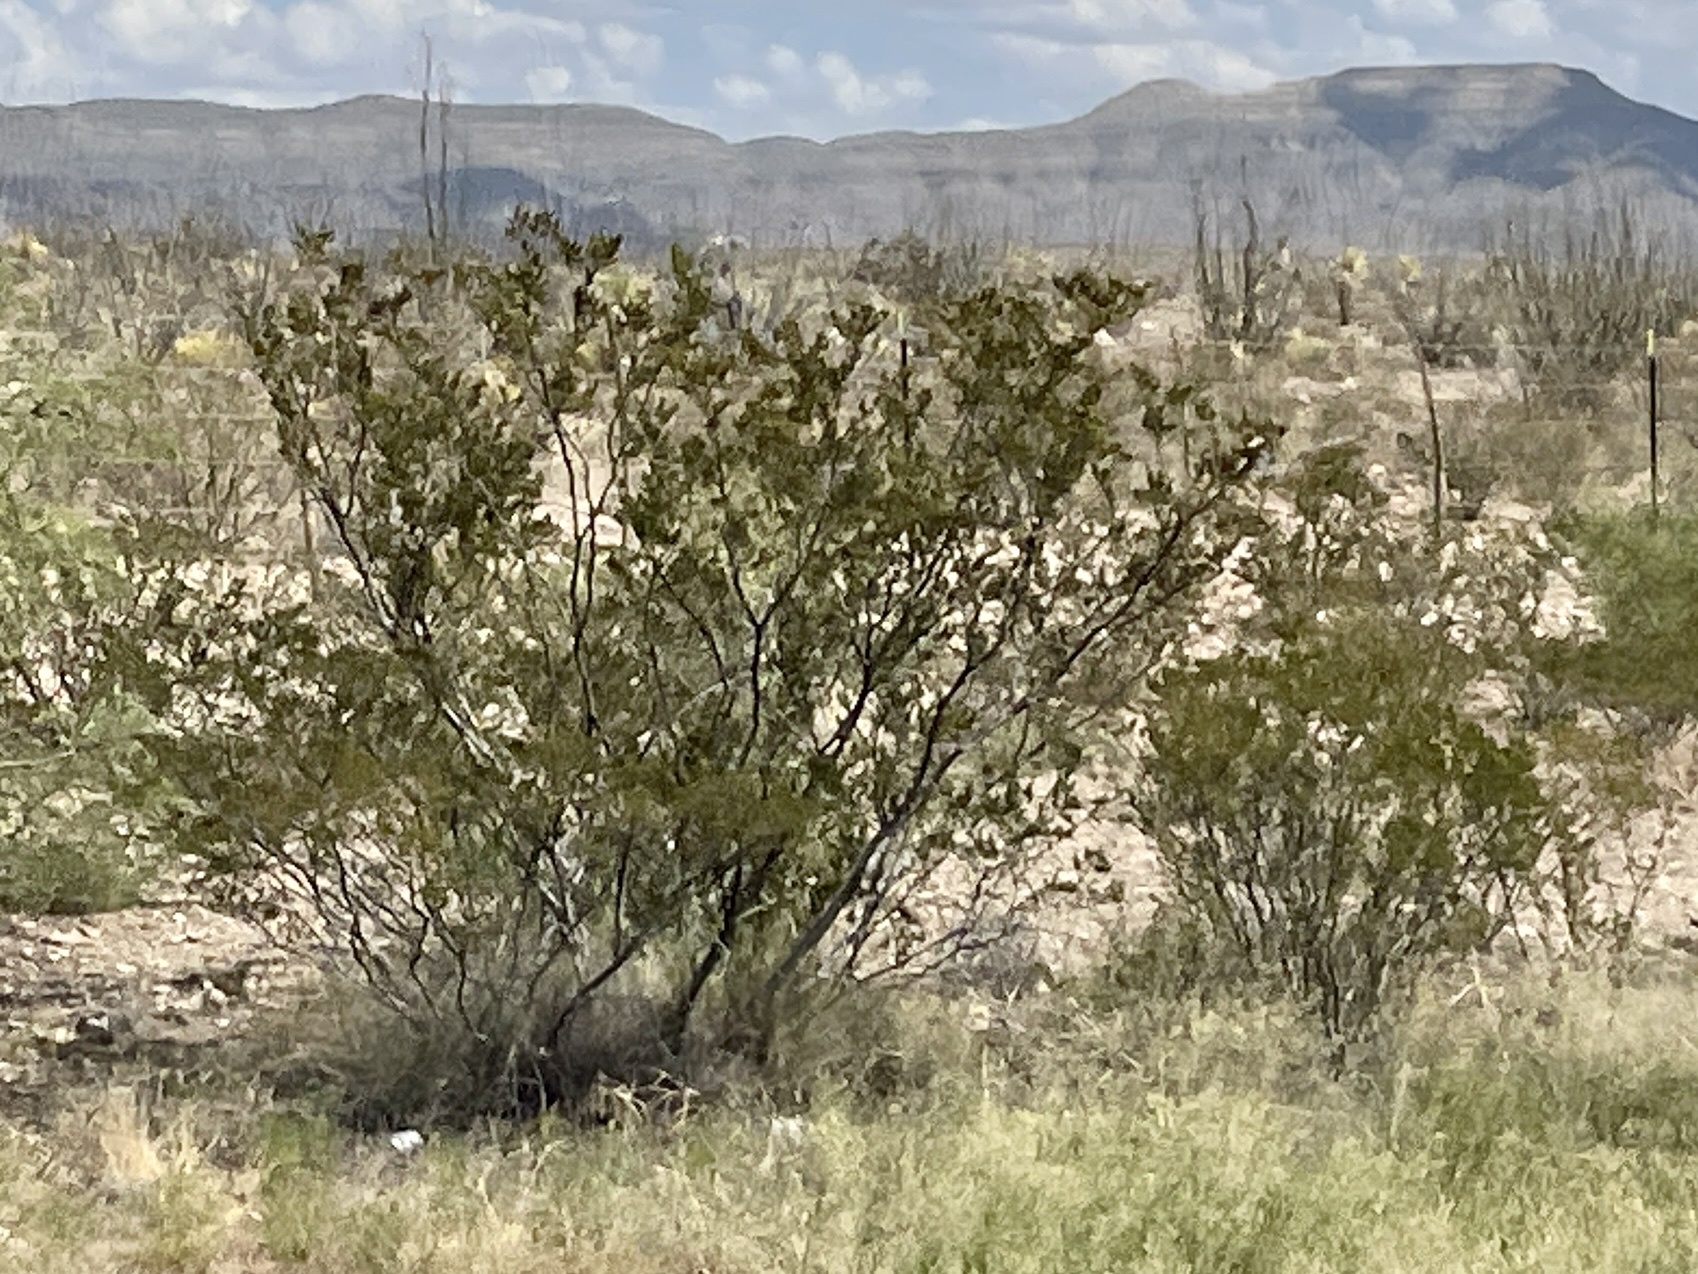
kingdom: Plantae
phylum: Tracheophyta
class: Magnoliopsida
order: Zygophyllales
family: Zygophyllaceae
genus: Larrea
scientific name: Larrea tridentata
